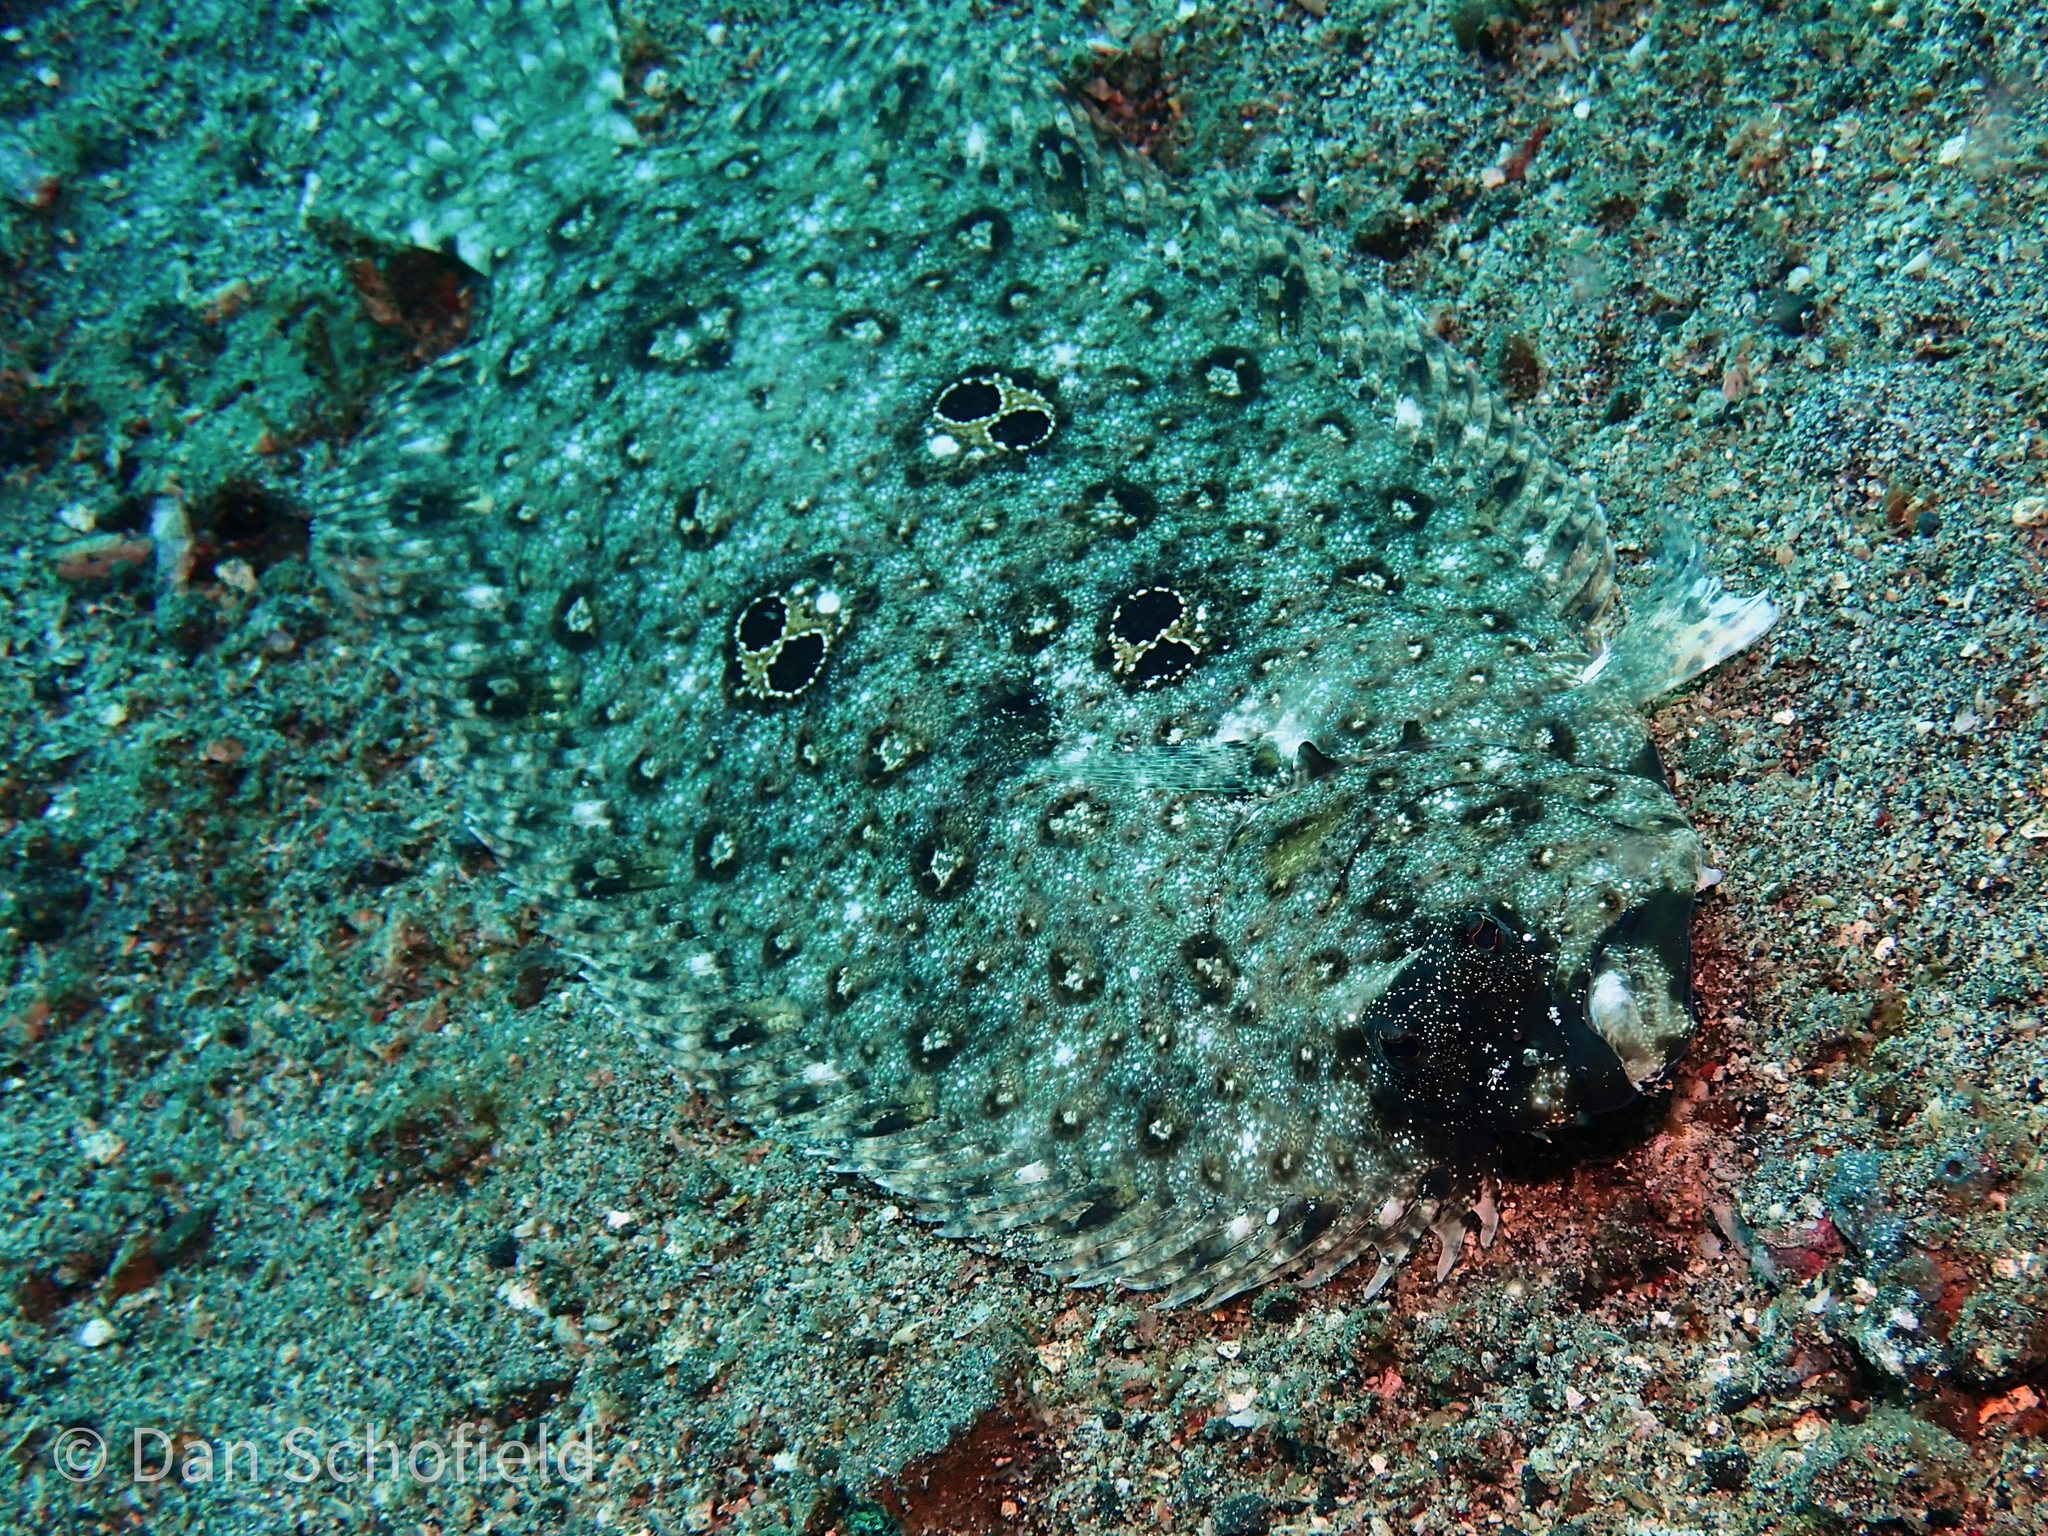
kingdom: Animalia
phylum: Chordata
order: Pleuronectiformes
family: Paralichthyidae
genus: Pseudorhombus
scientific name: Pseudorhombus dupliciocellatus
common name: Ocellated flounder
